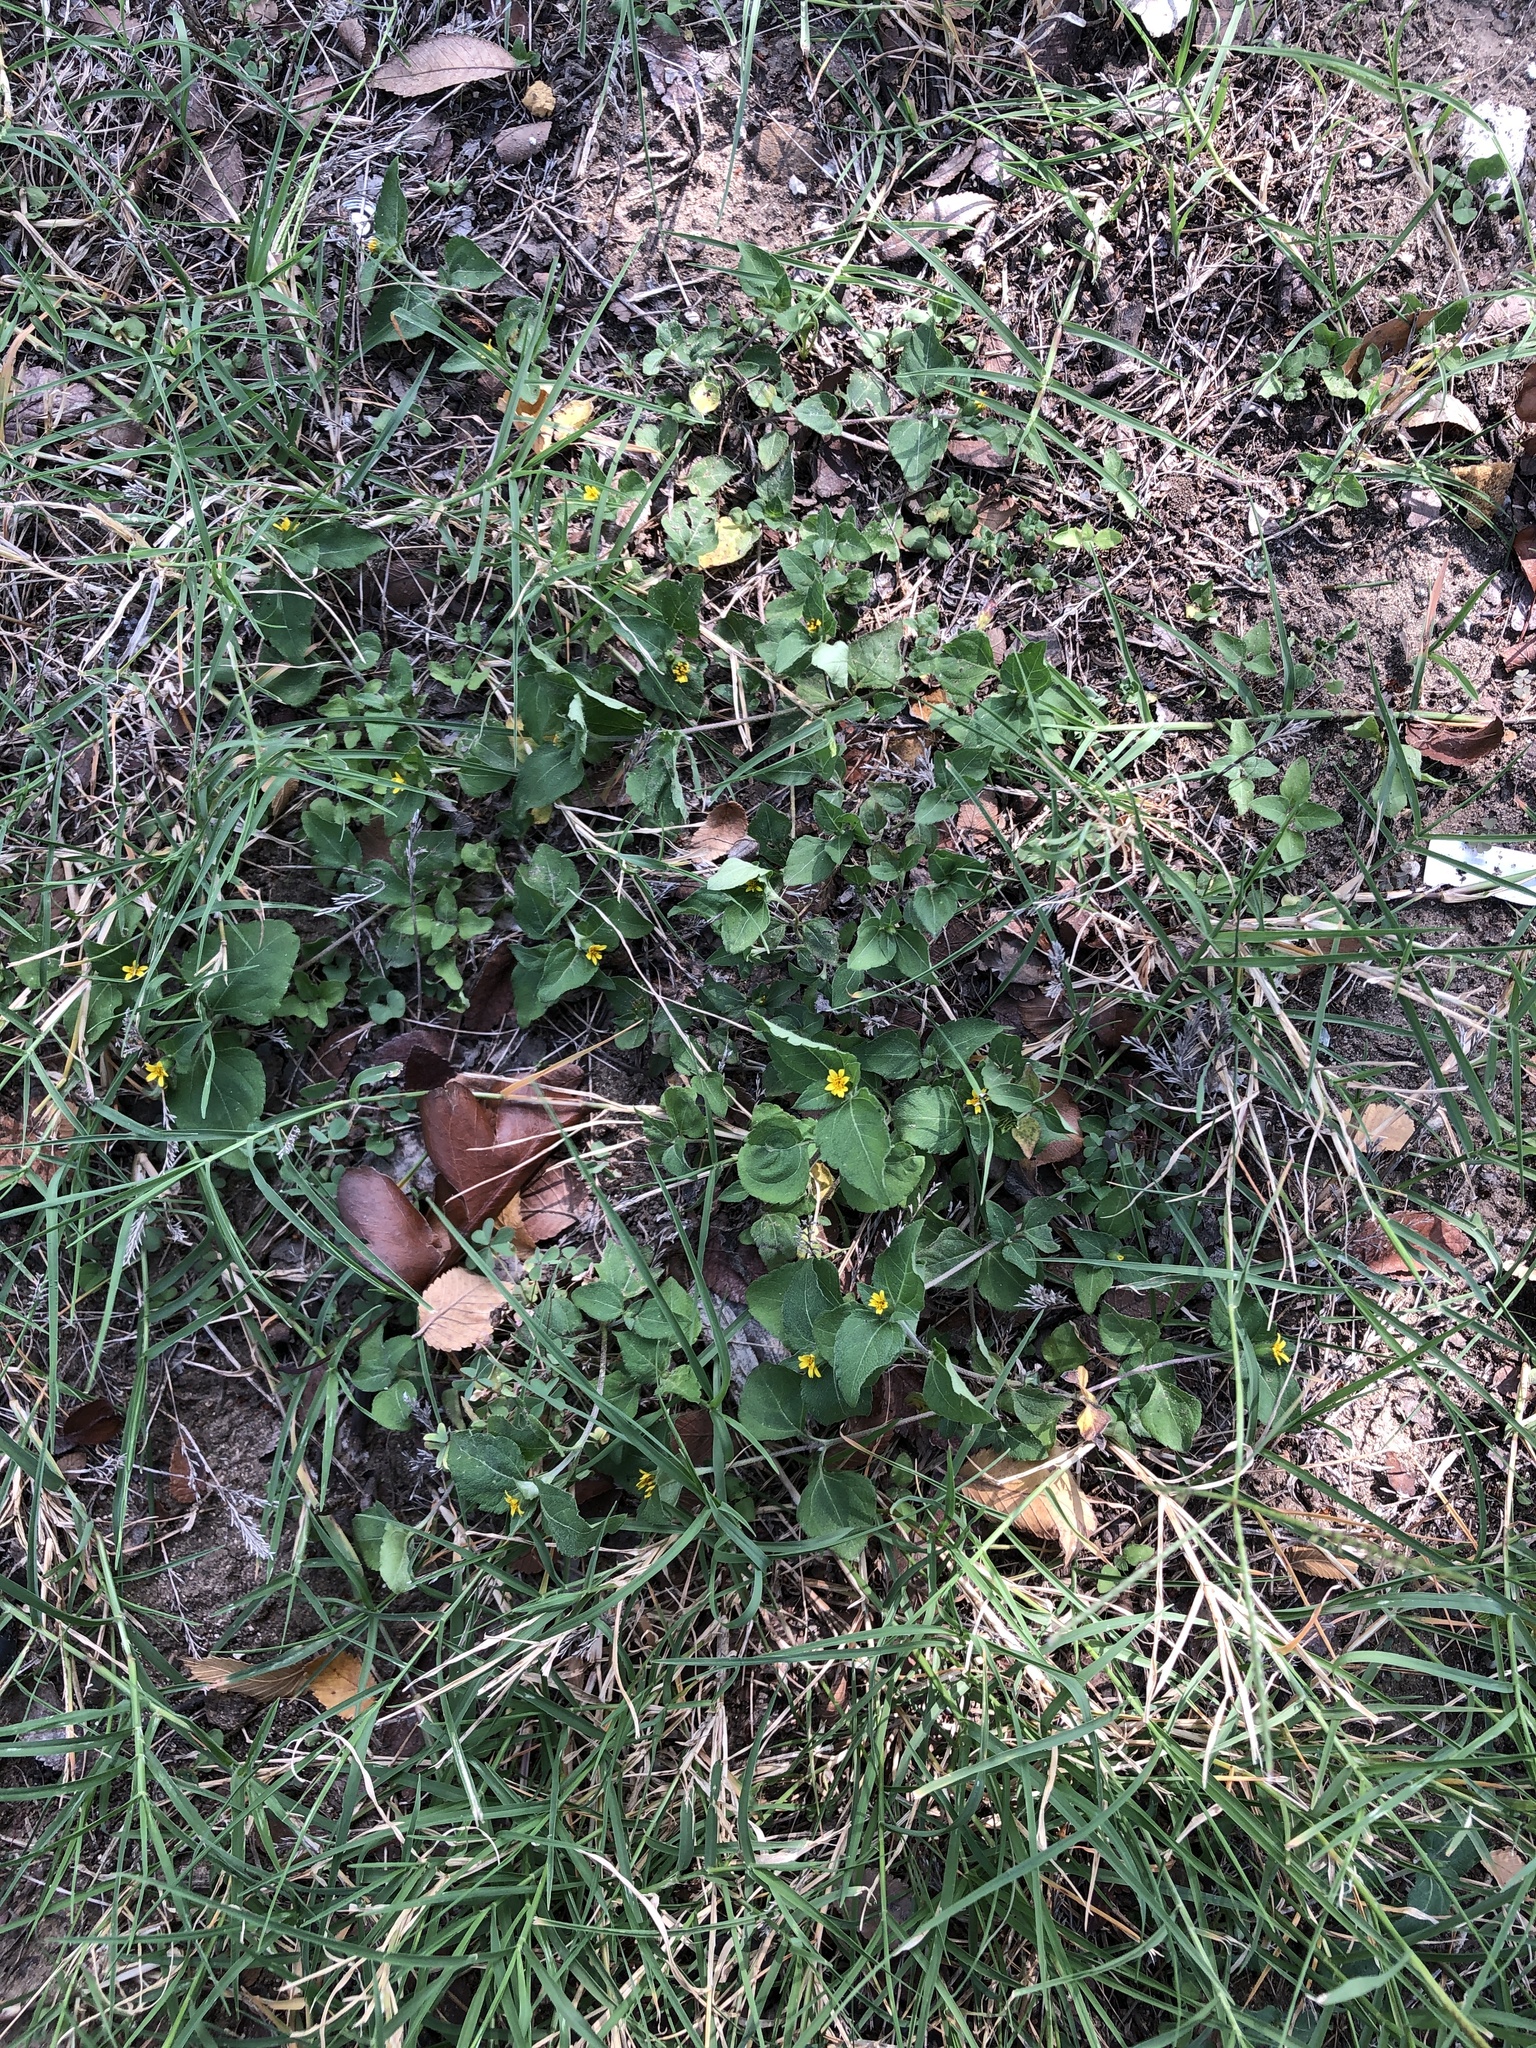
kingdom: Plantae
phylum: Tracheophyta
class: Magnoliopsida
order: Asterales
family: Asteraceae
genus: Calyptocarpus
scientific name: Calyptocarpus vialis
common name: Straggler daisy
